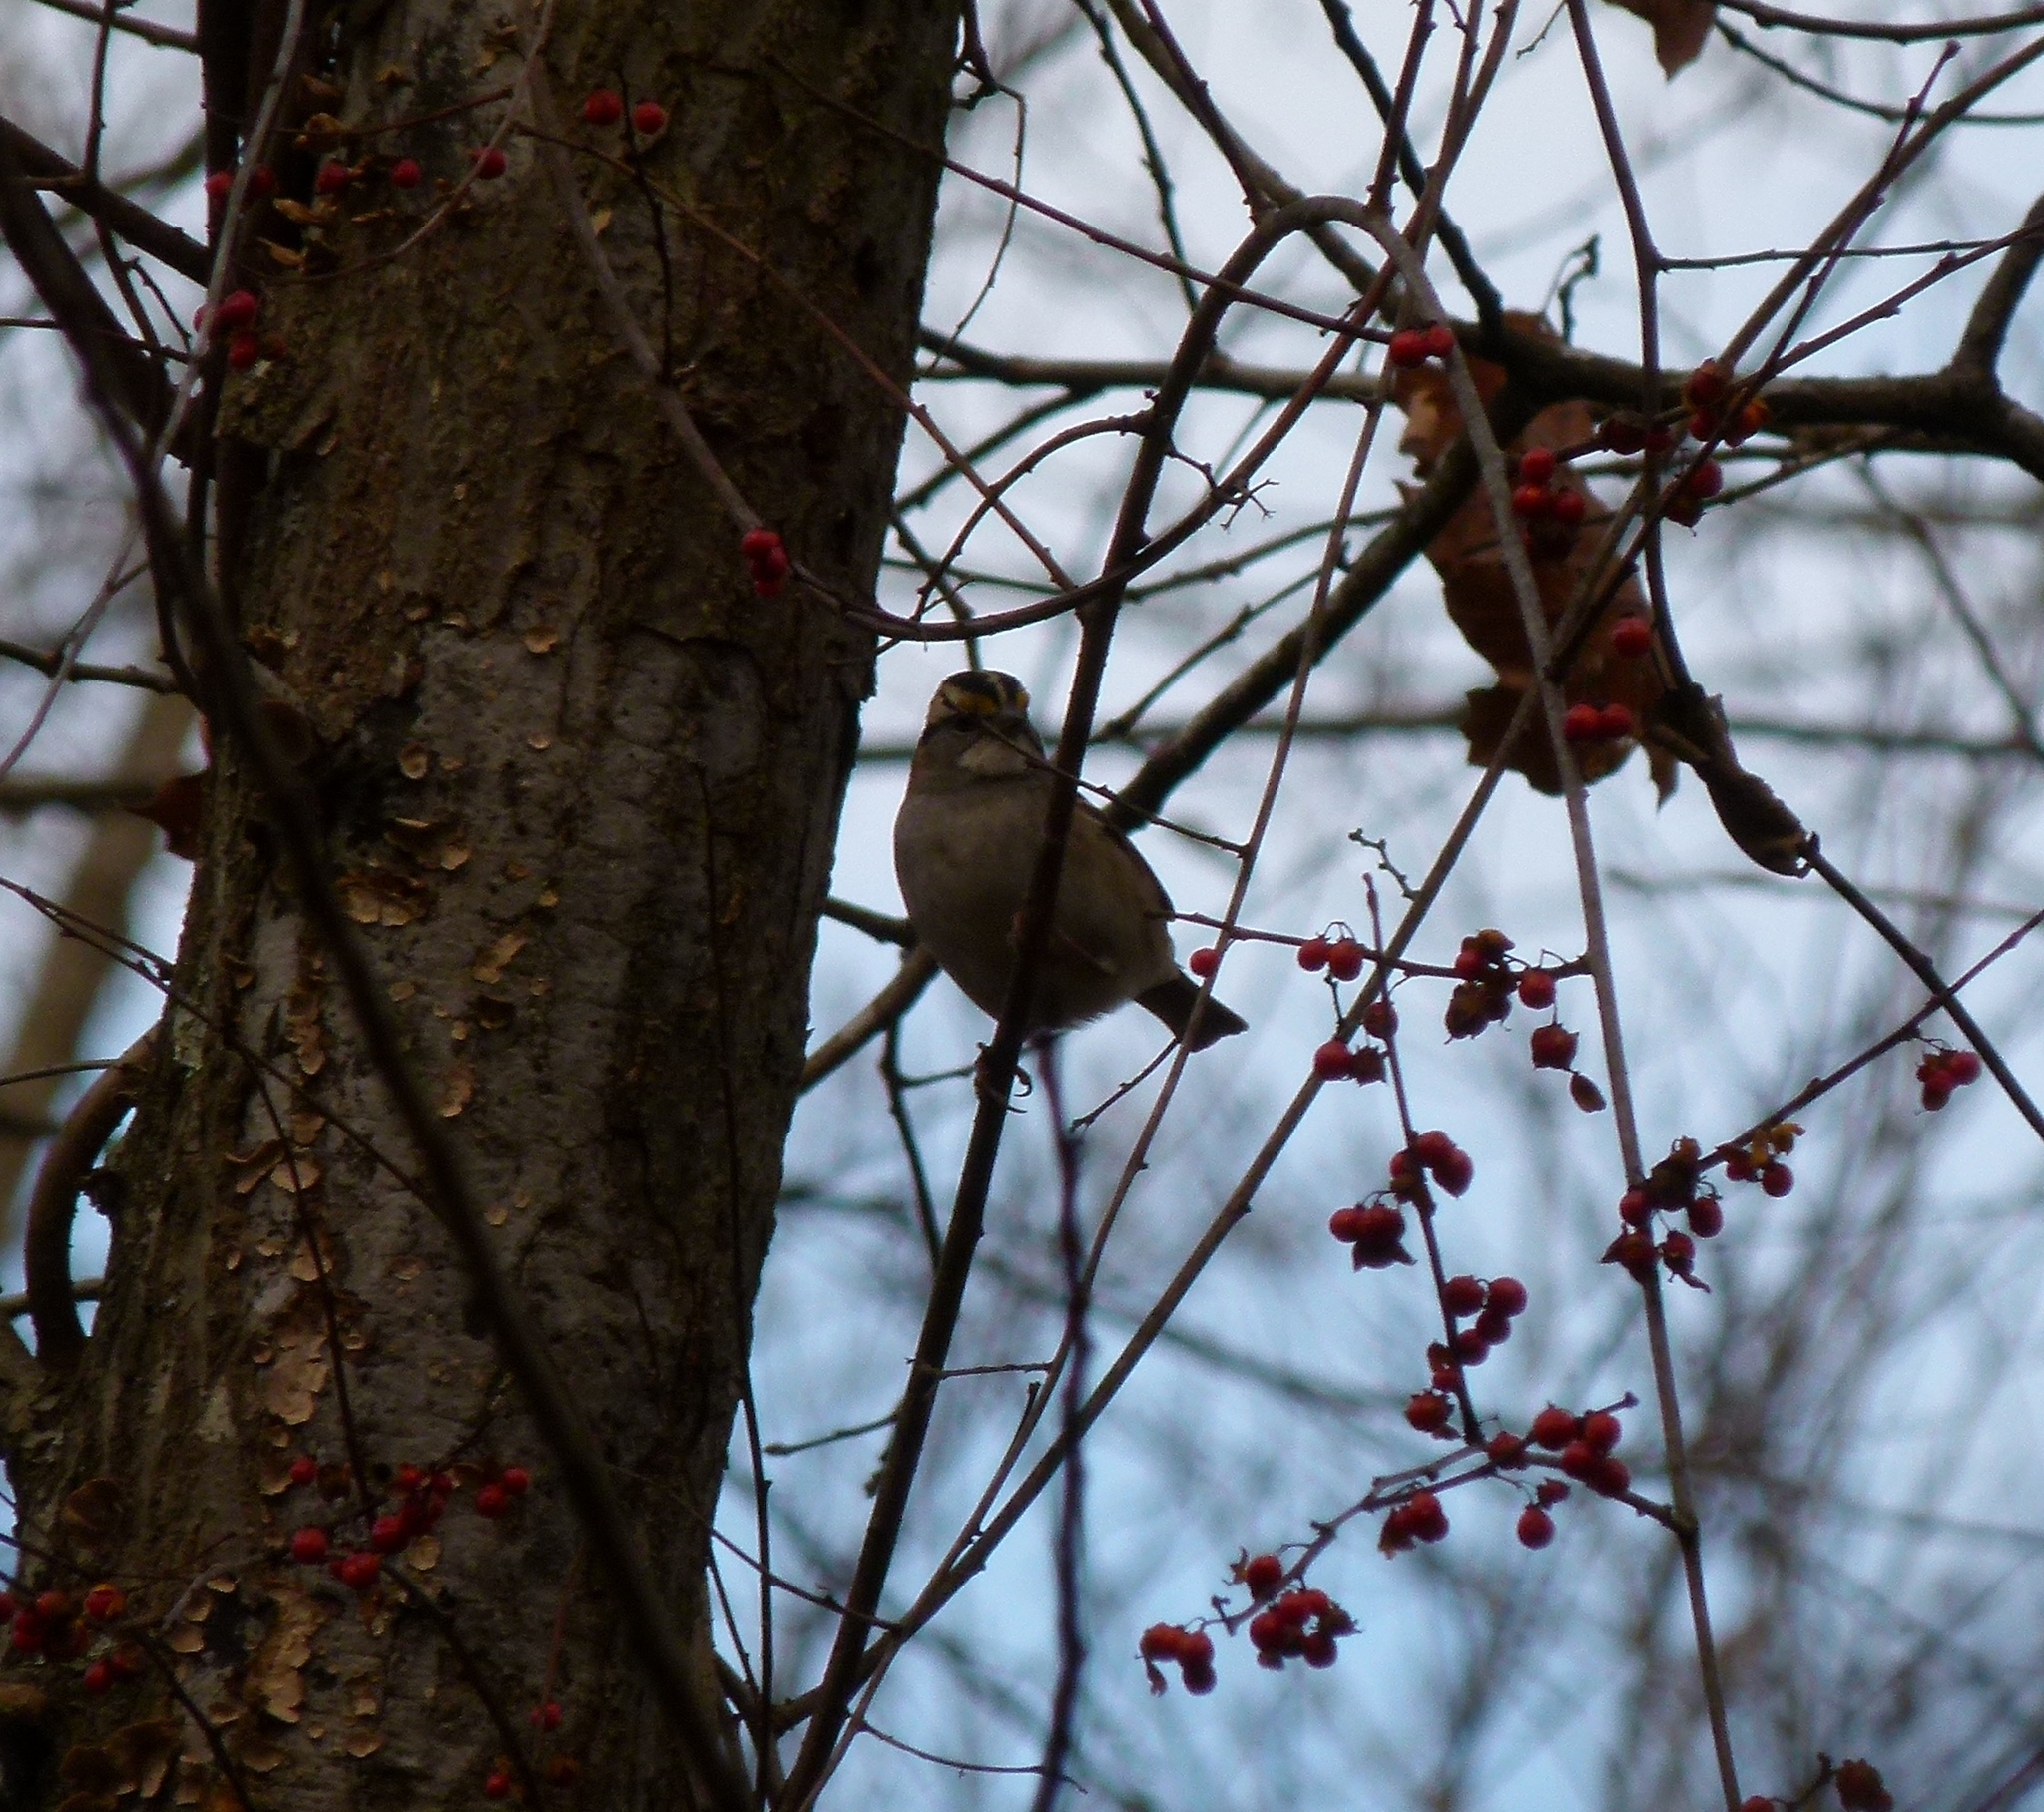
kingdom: Animalia
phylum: Chordata
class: Aves
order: Passeriformes
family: Passerellidae
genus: Zonotrichia
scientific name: Zonotrichia albicollis
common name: White-throated sparrow
